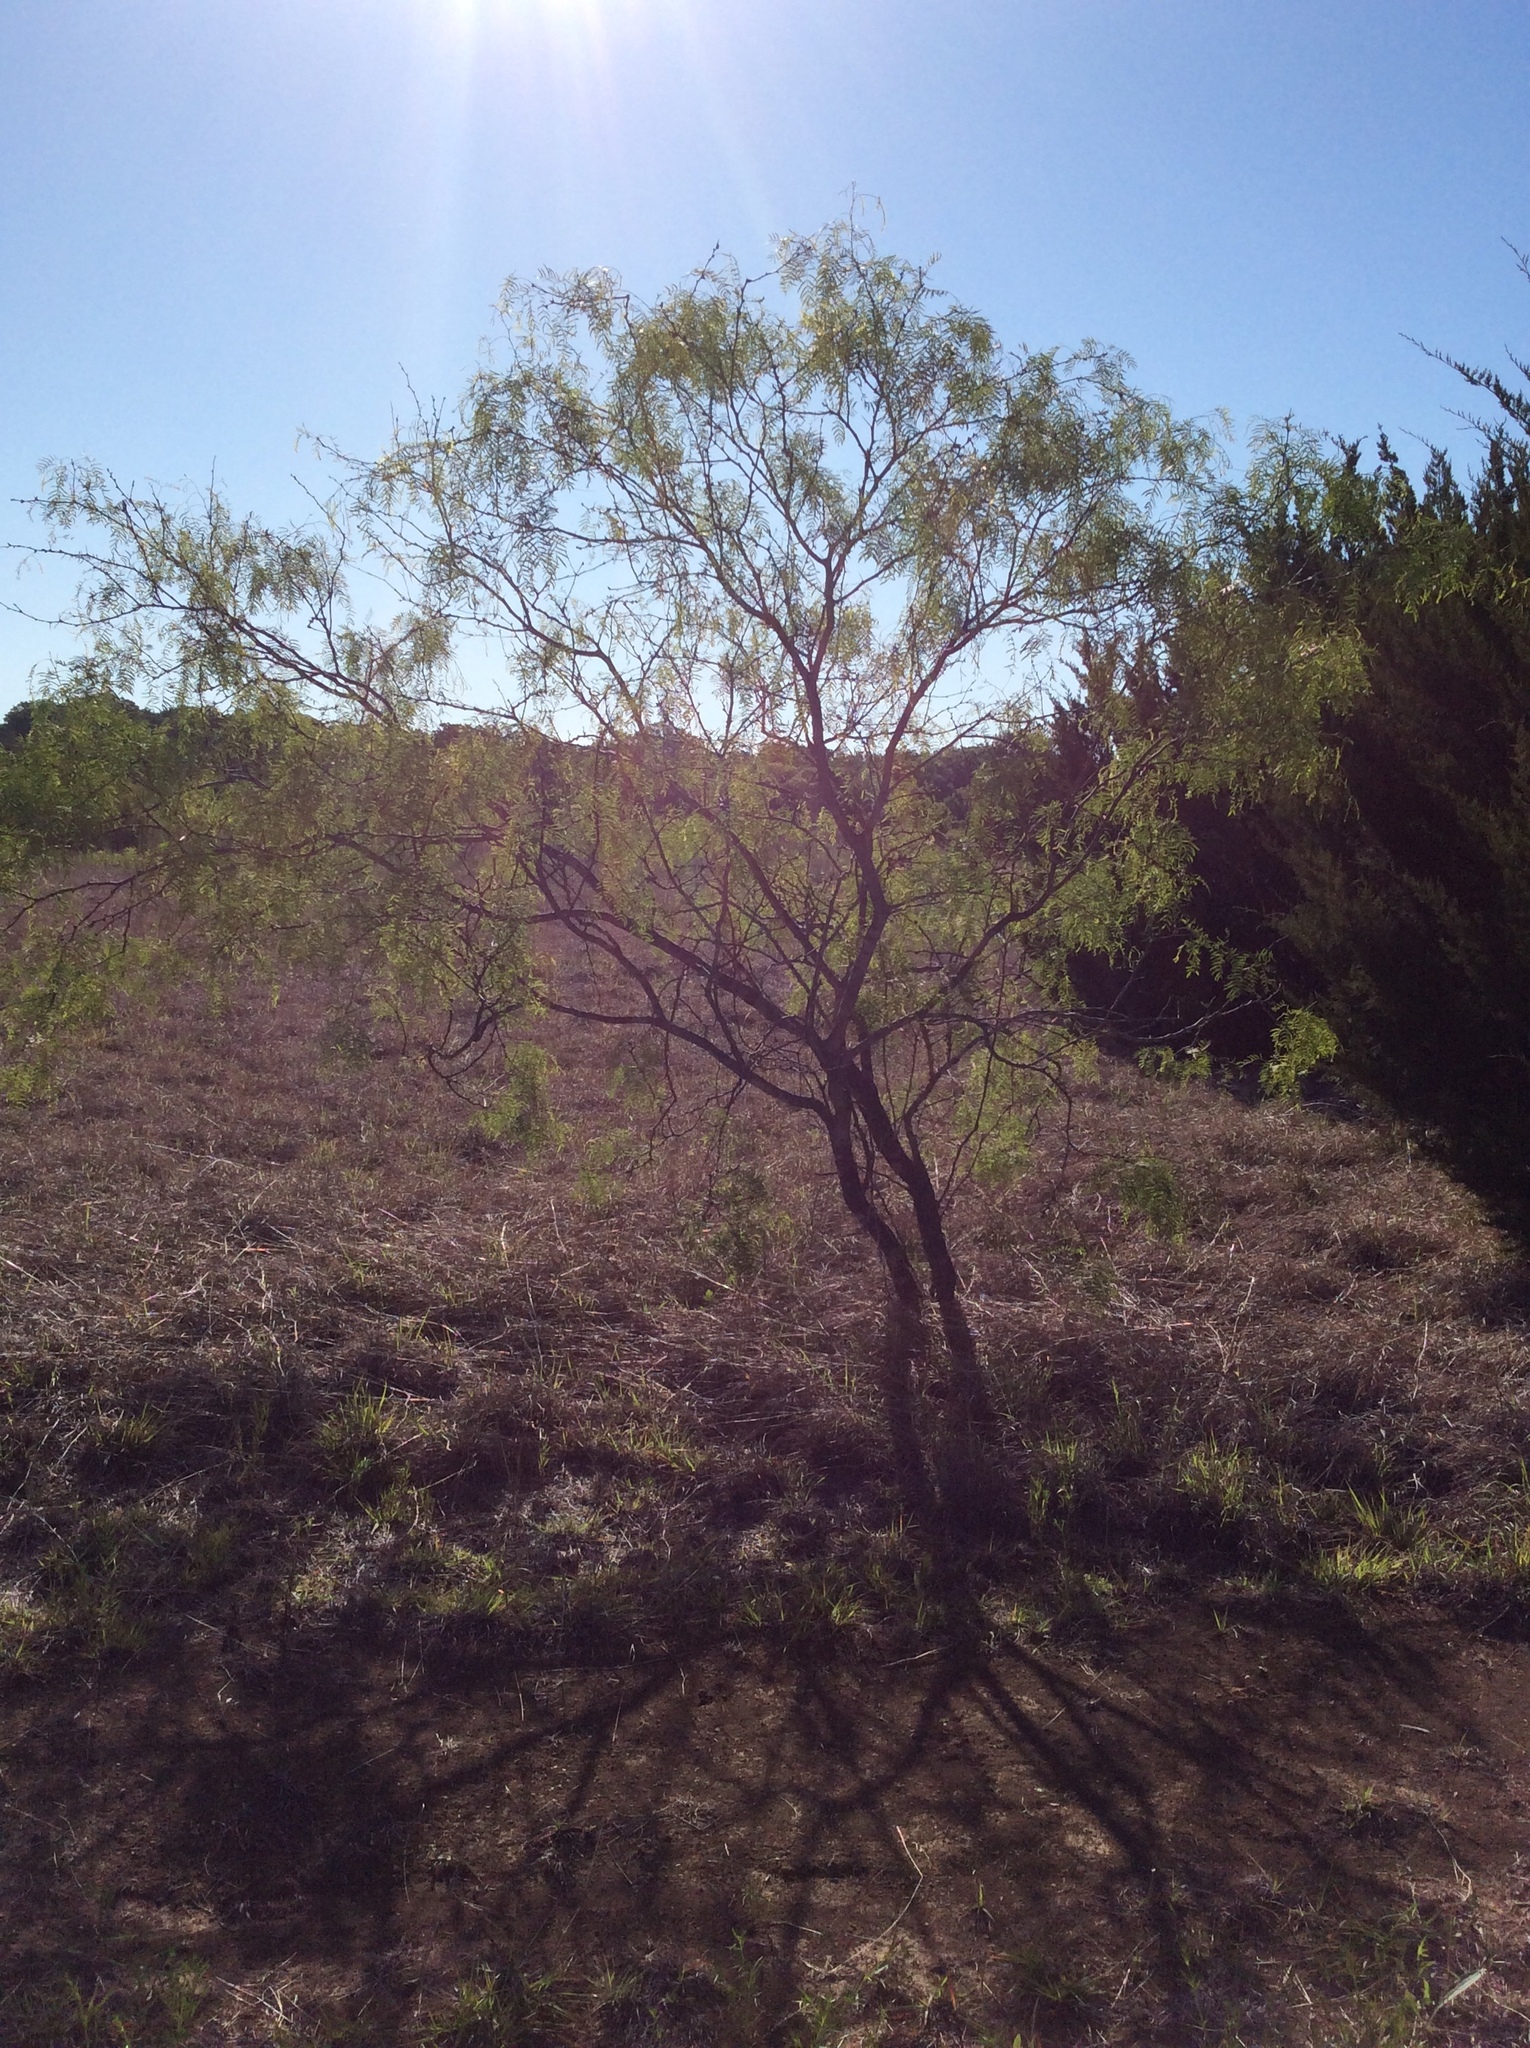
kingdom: Plantae
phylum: Tracheophyta
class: Magnoliopsida
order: Fabales
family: Fabaceae
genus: Prosopis
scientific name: Prosopis glandulosa
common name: Honey mesquite
